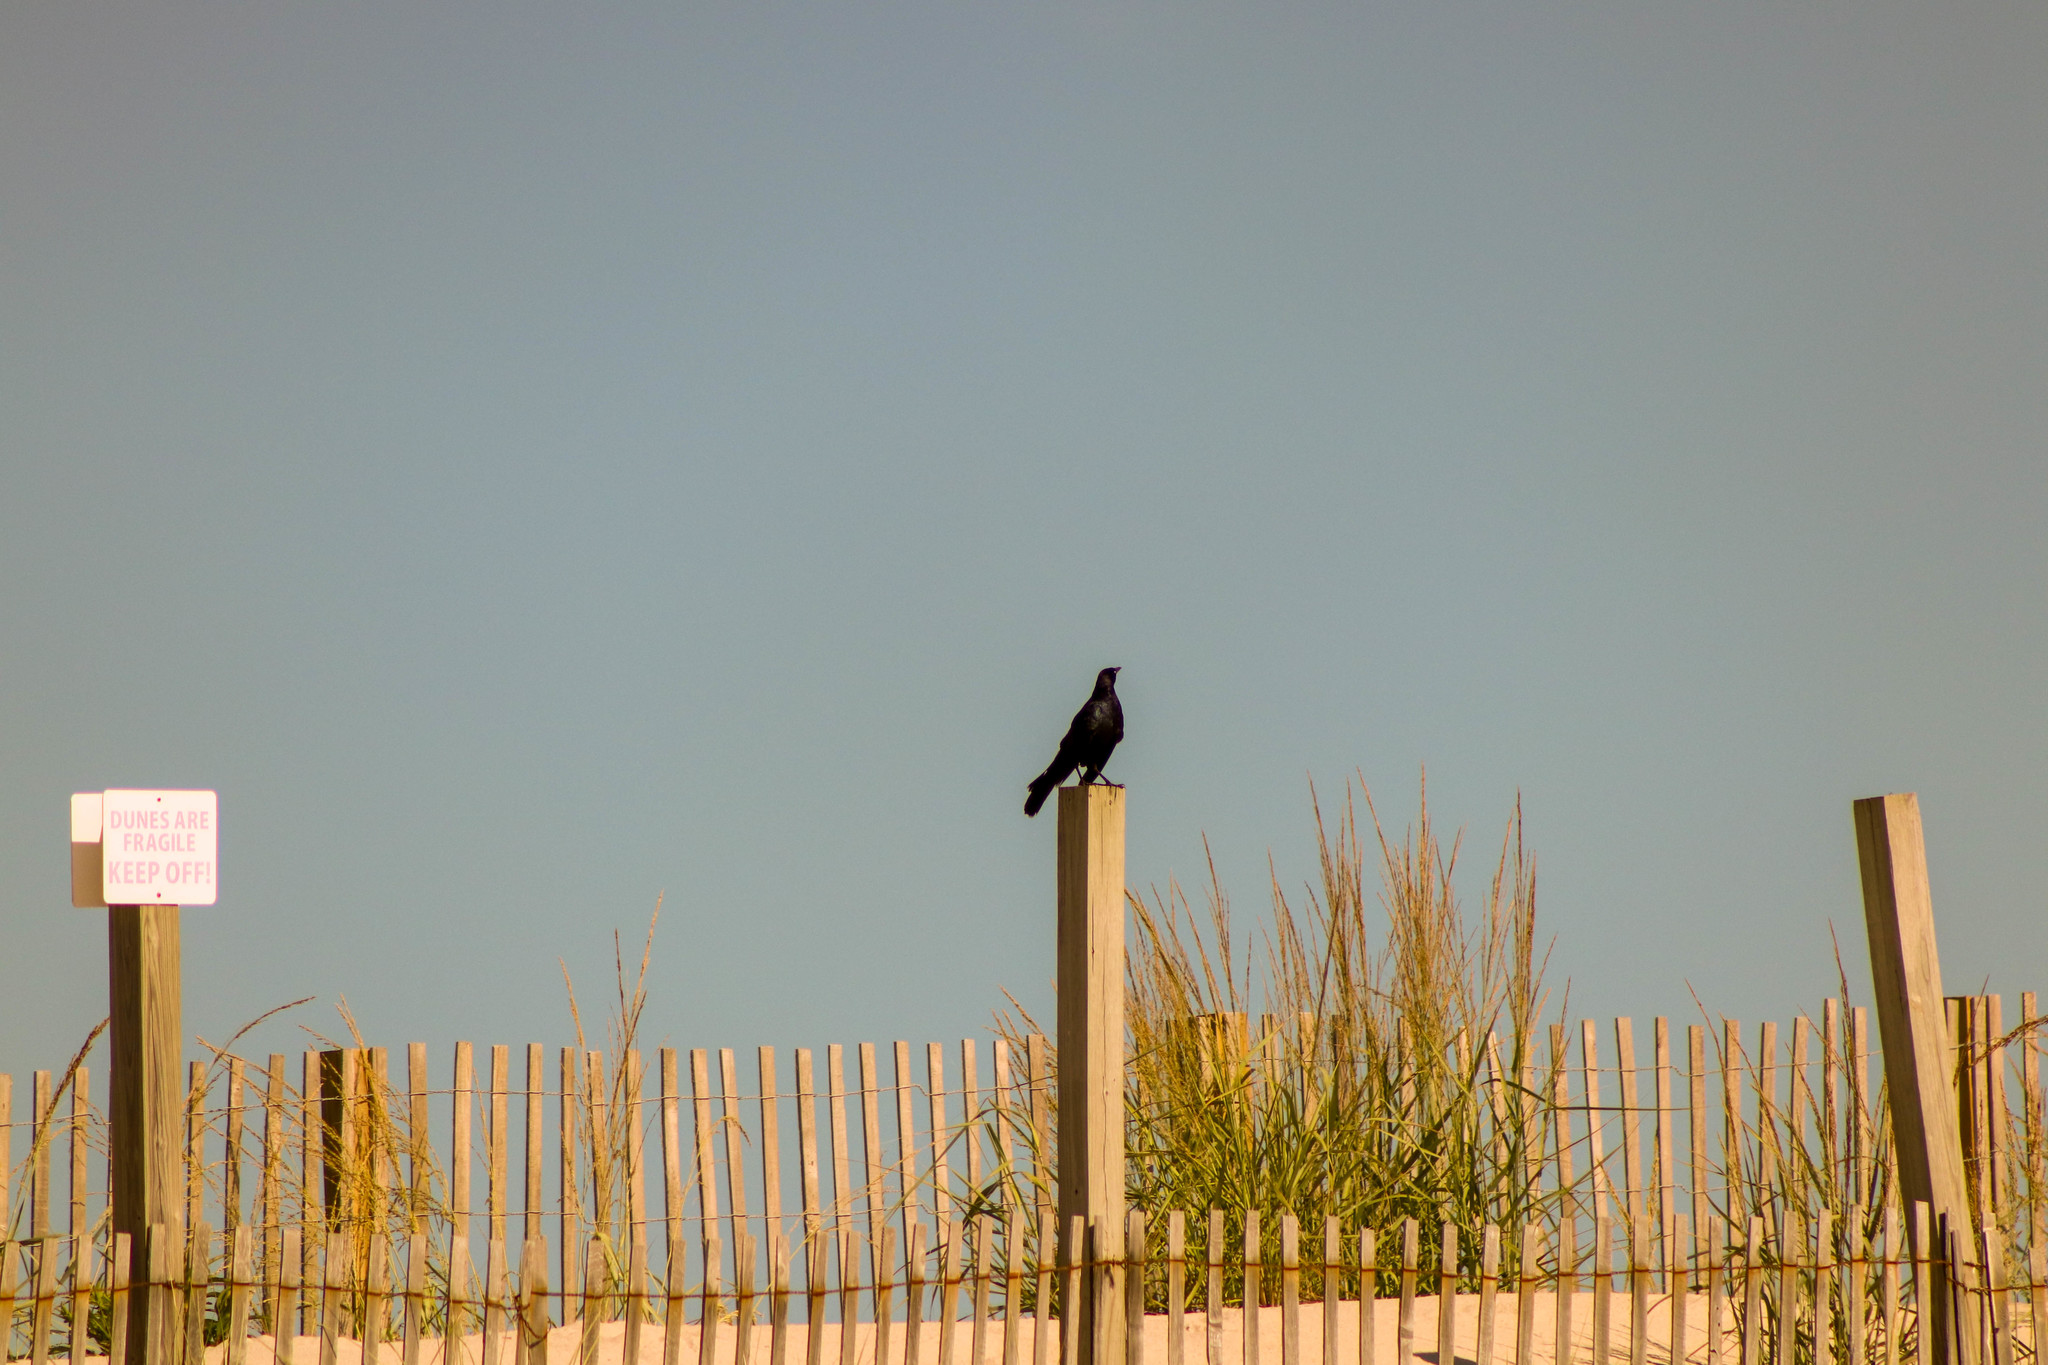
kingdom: Animalia
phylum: Chordata
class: Aves
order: Passeriformes
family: Icteridae
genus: Quiscalus
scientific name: Quiscalus major
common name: Boat-tailed grackle
